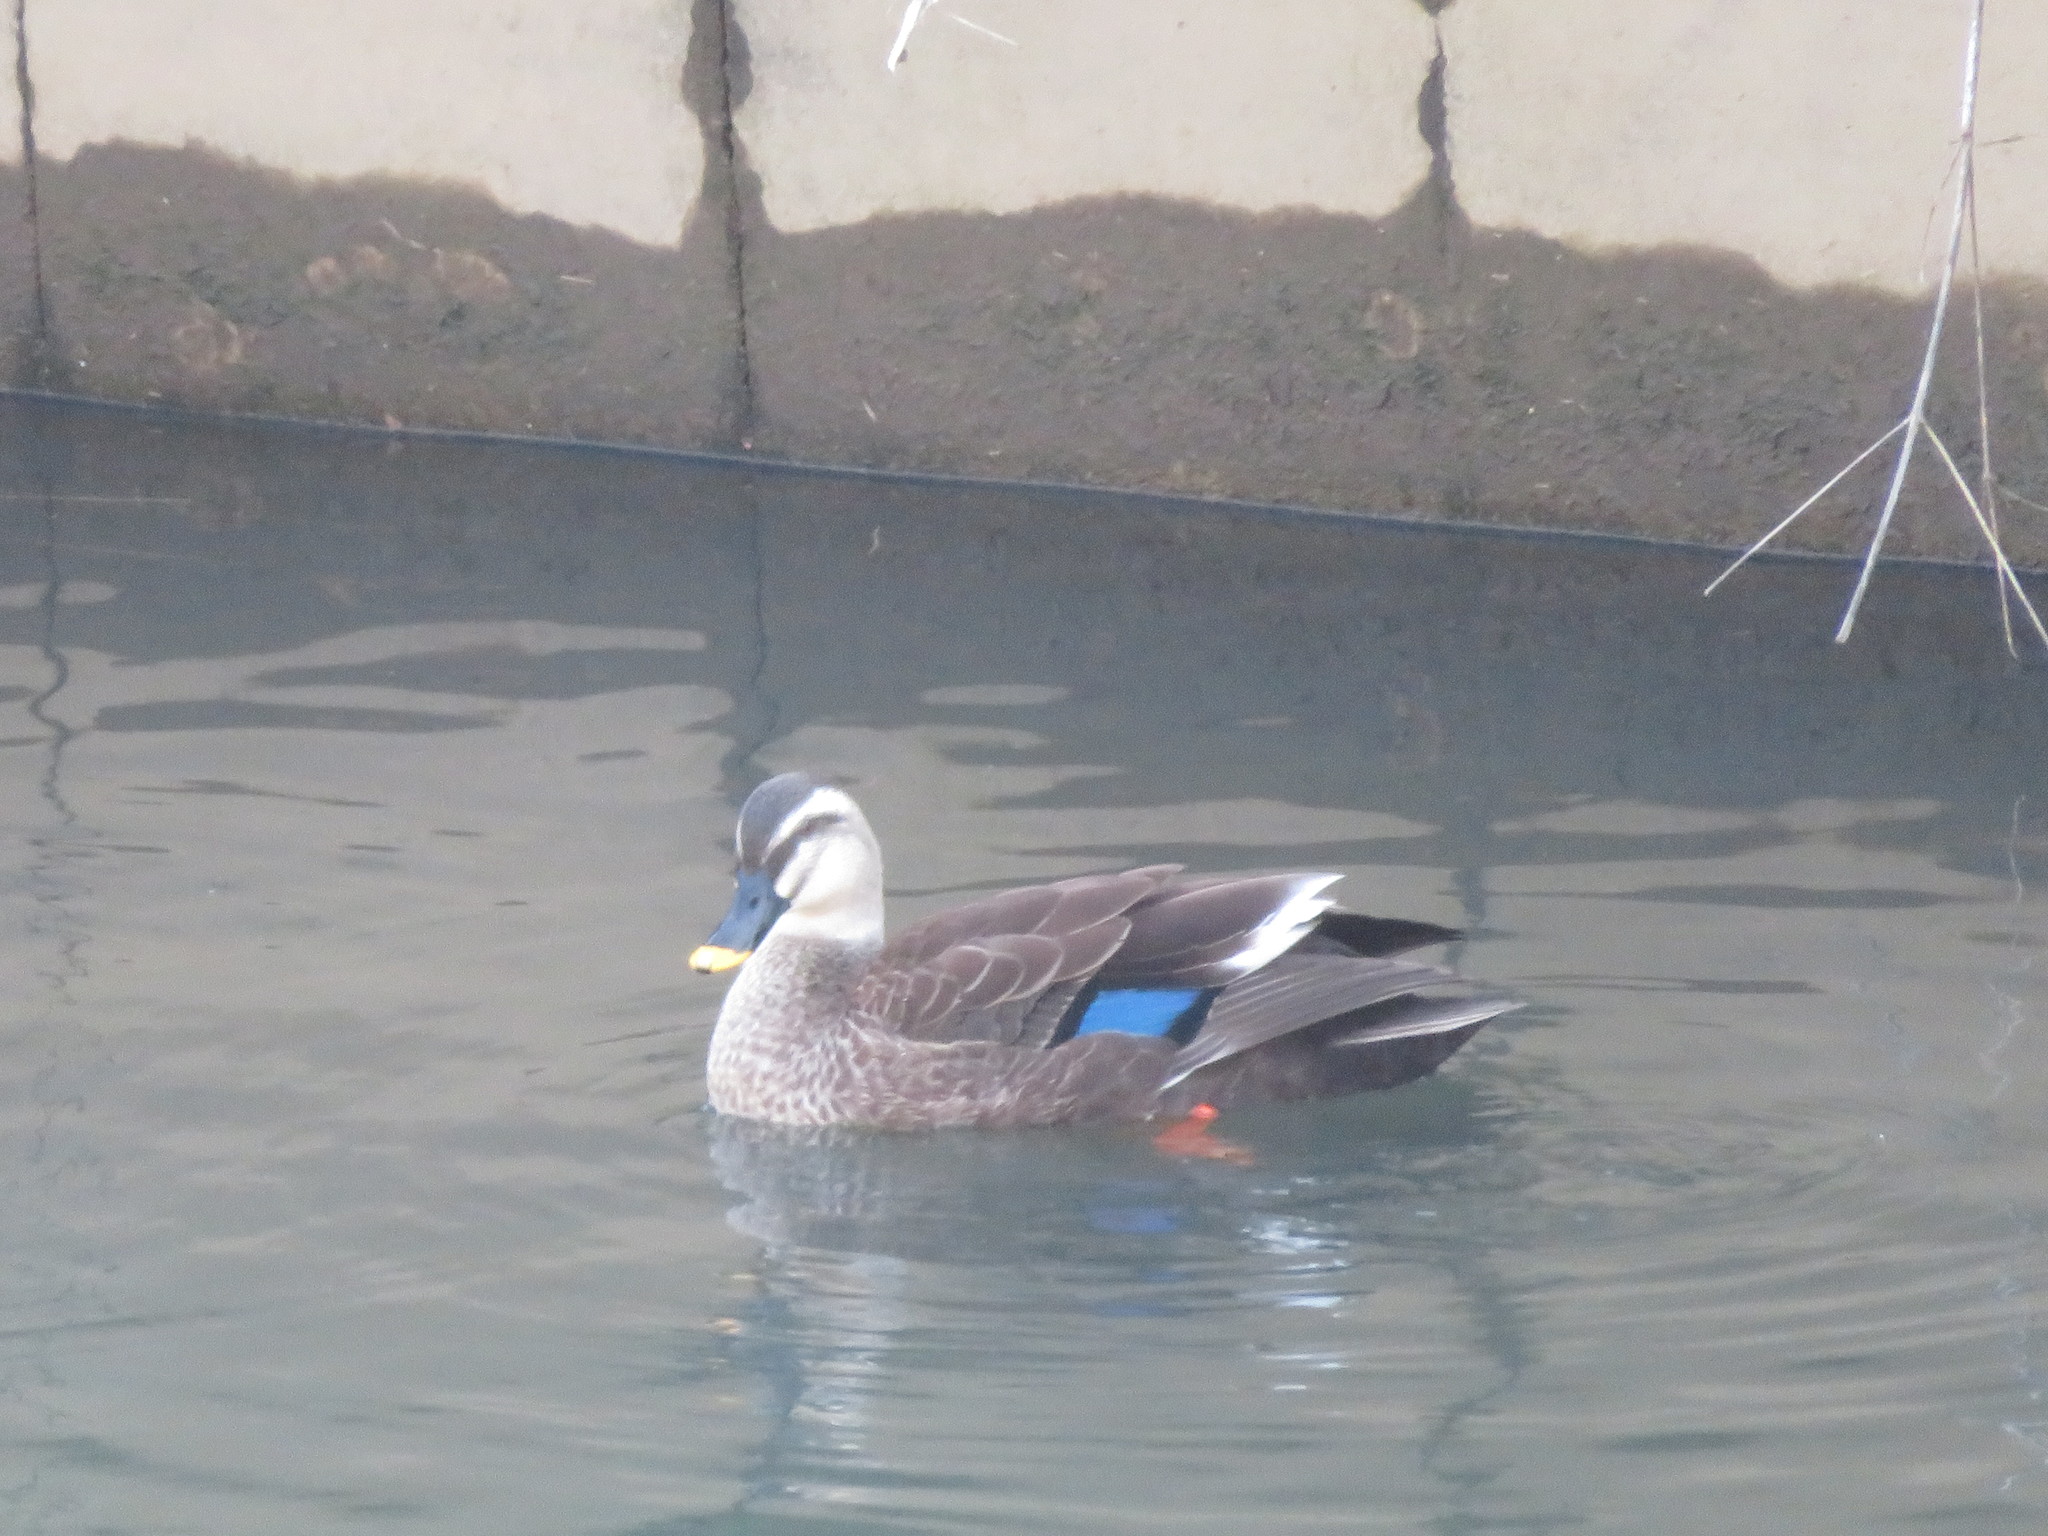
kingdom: Animalia
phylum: Chordata
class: Aves
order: Anseriformes
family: Anatidae
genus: Anas
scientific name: Anas zonorhyncha
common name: Eastern spot-billed duck
